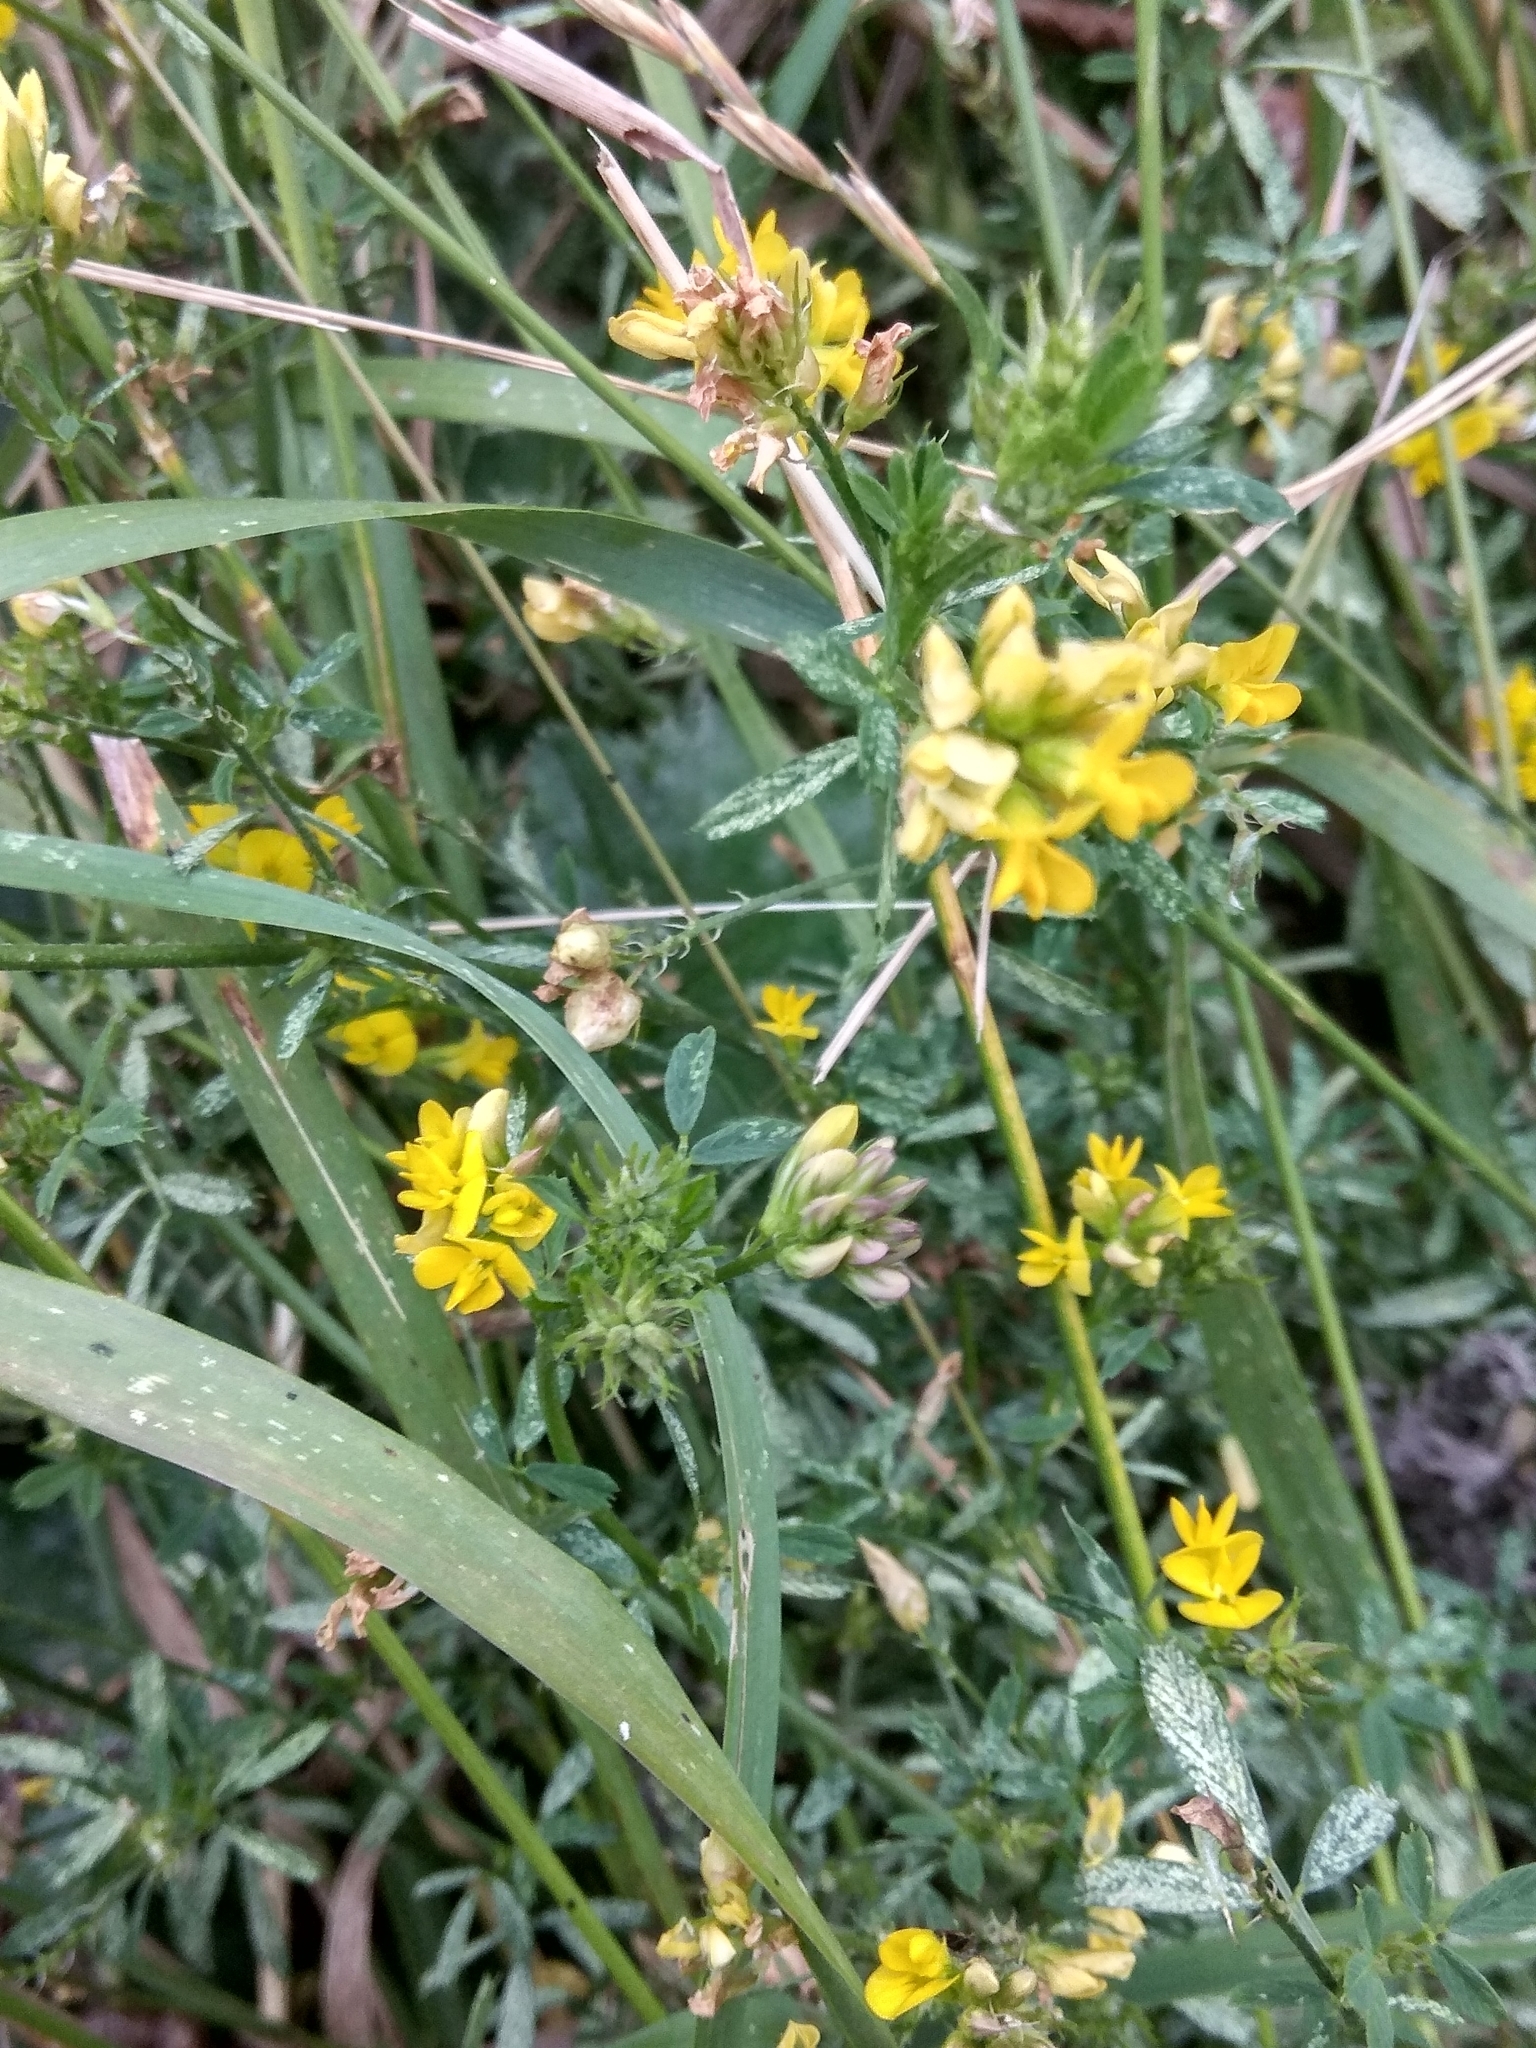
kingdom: Plantae
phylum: Tracheophyta
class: Magnoliopsida
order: Fabales
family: Fabaceae
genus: Medicago
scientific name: Medicago falcata
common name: Sickle medick
